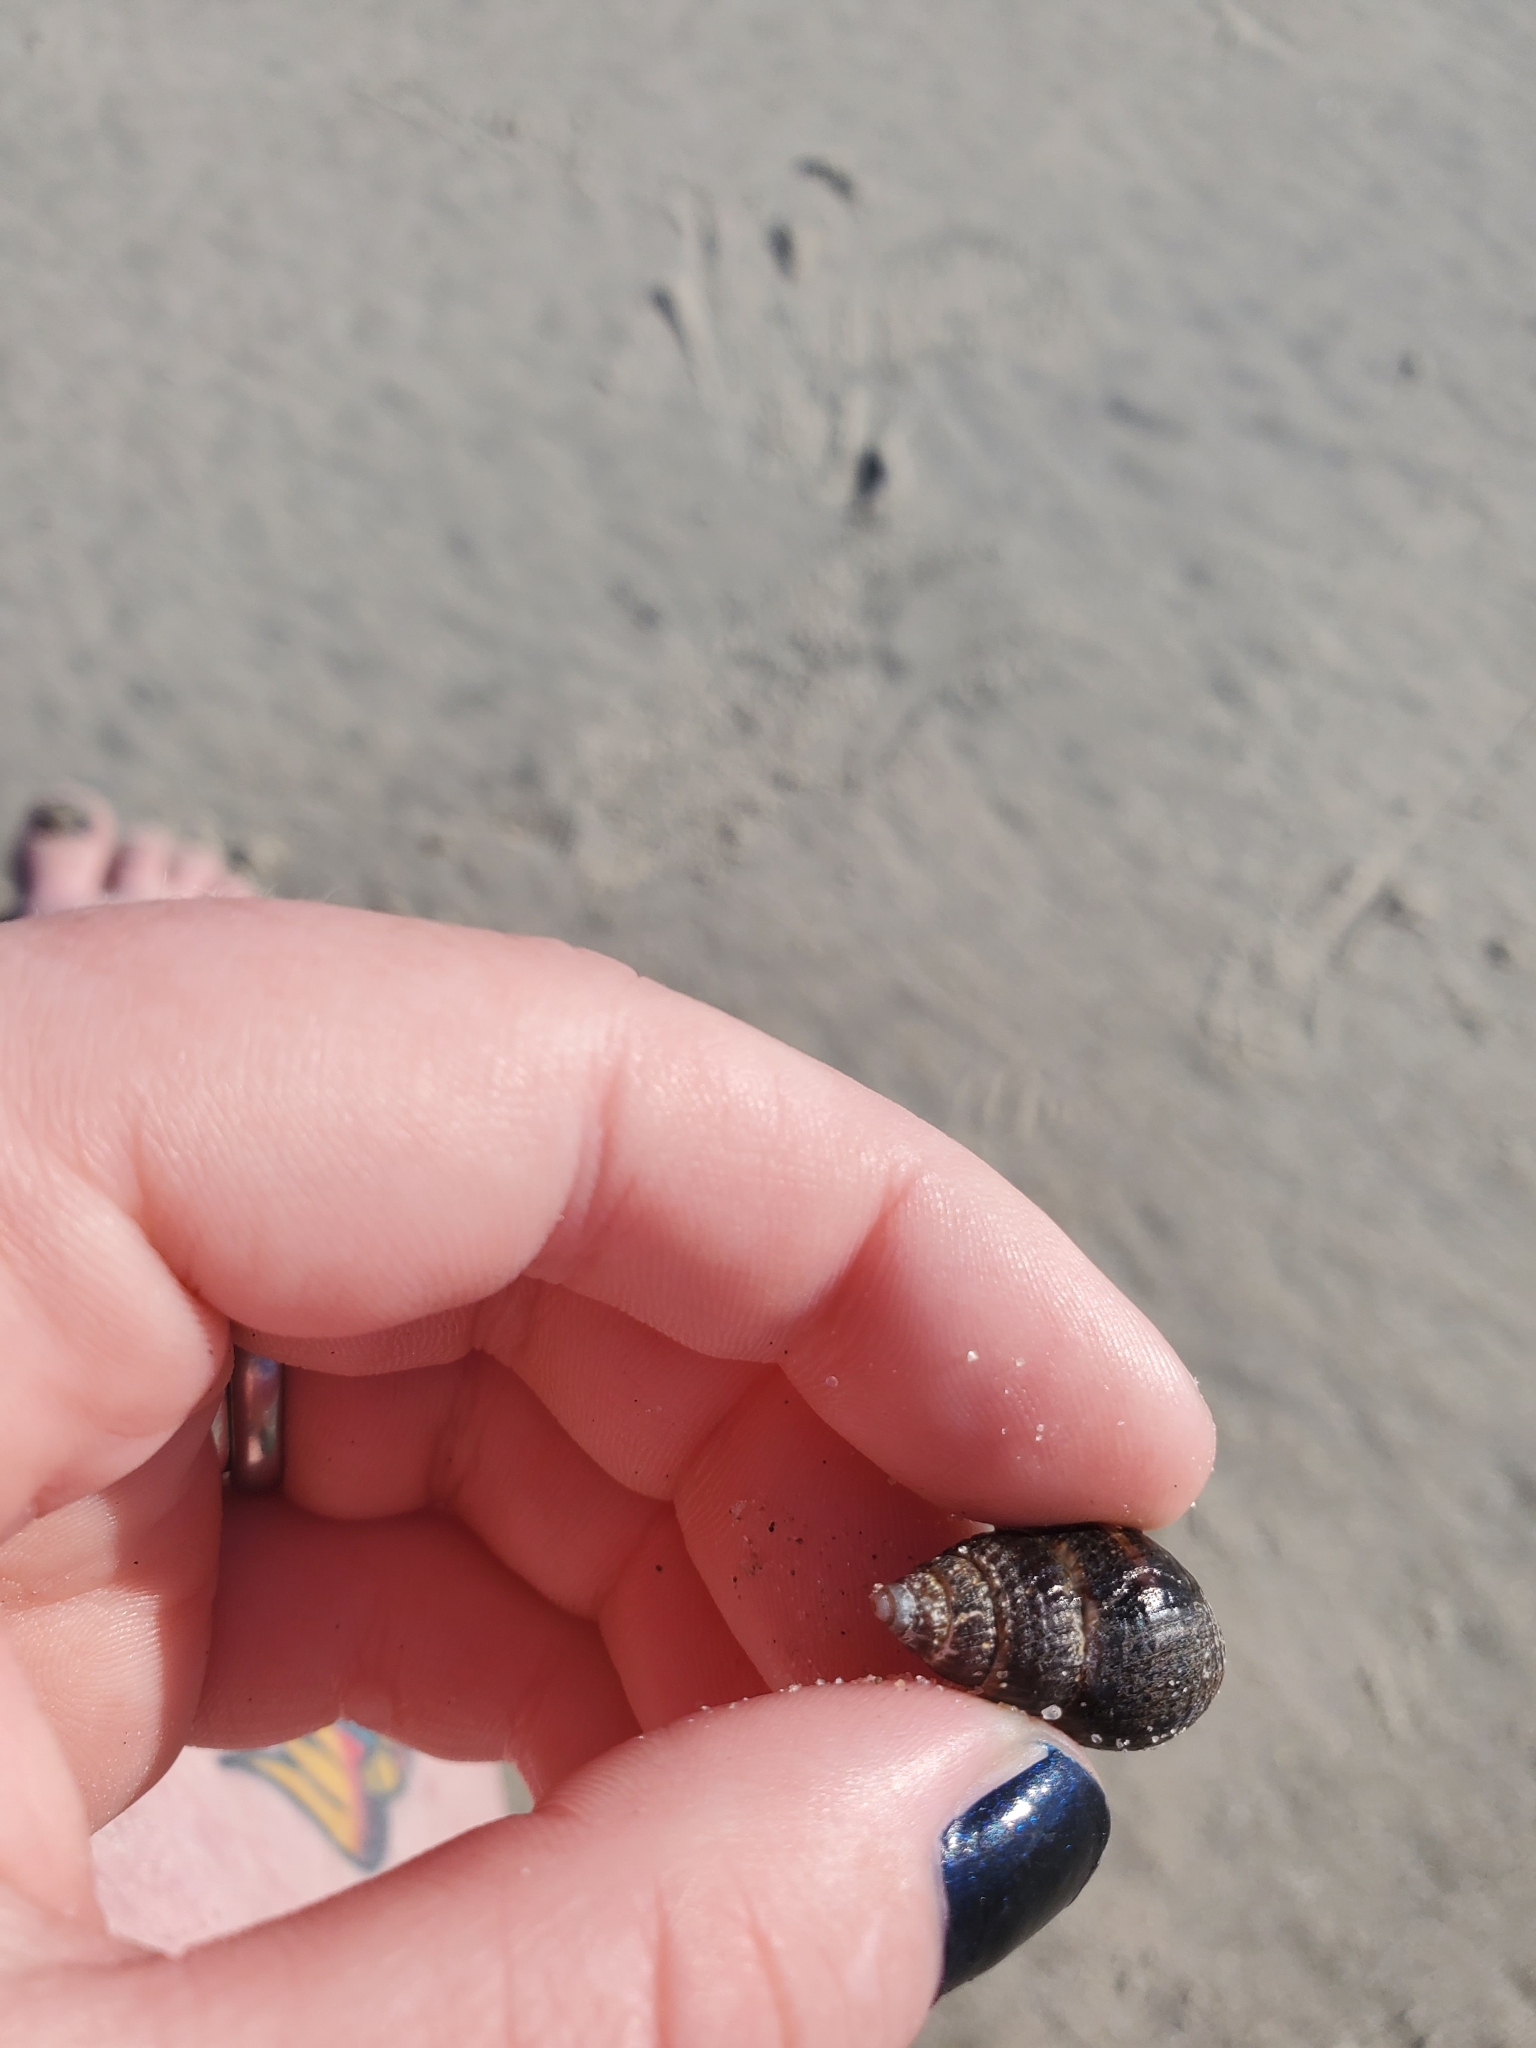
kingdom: Animalia
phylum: Arthropoda
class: Malacostraca
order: Decapoda
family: Paguridae
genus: Pagurus
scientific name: Pagurus longicarpus
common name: Long-armed hermit crab
